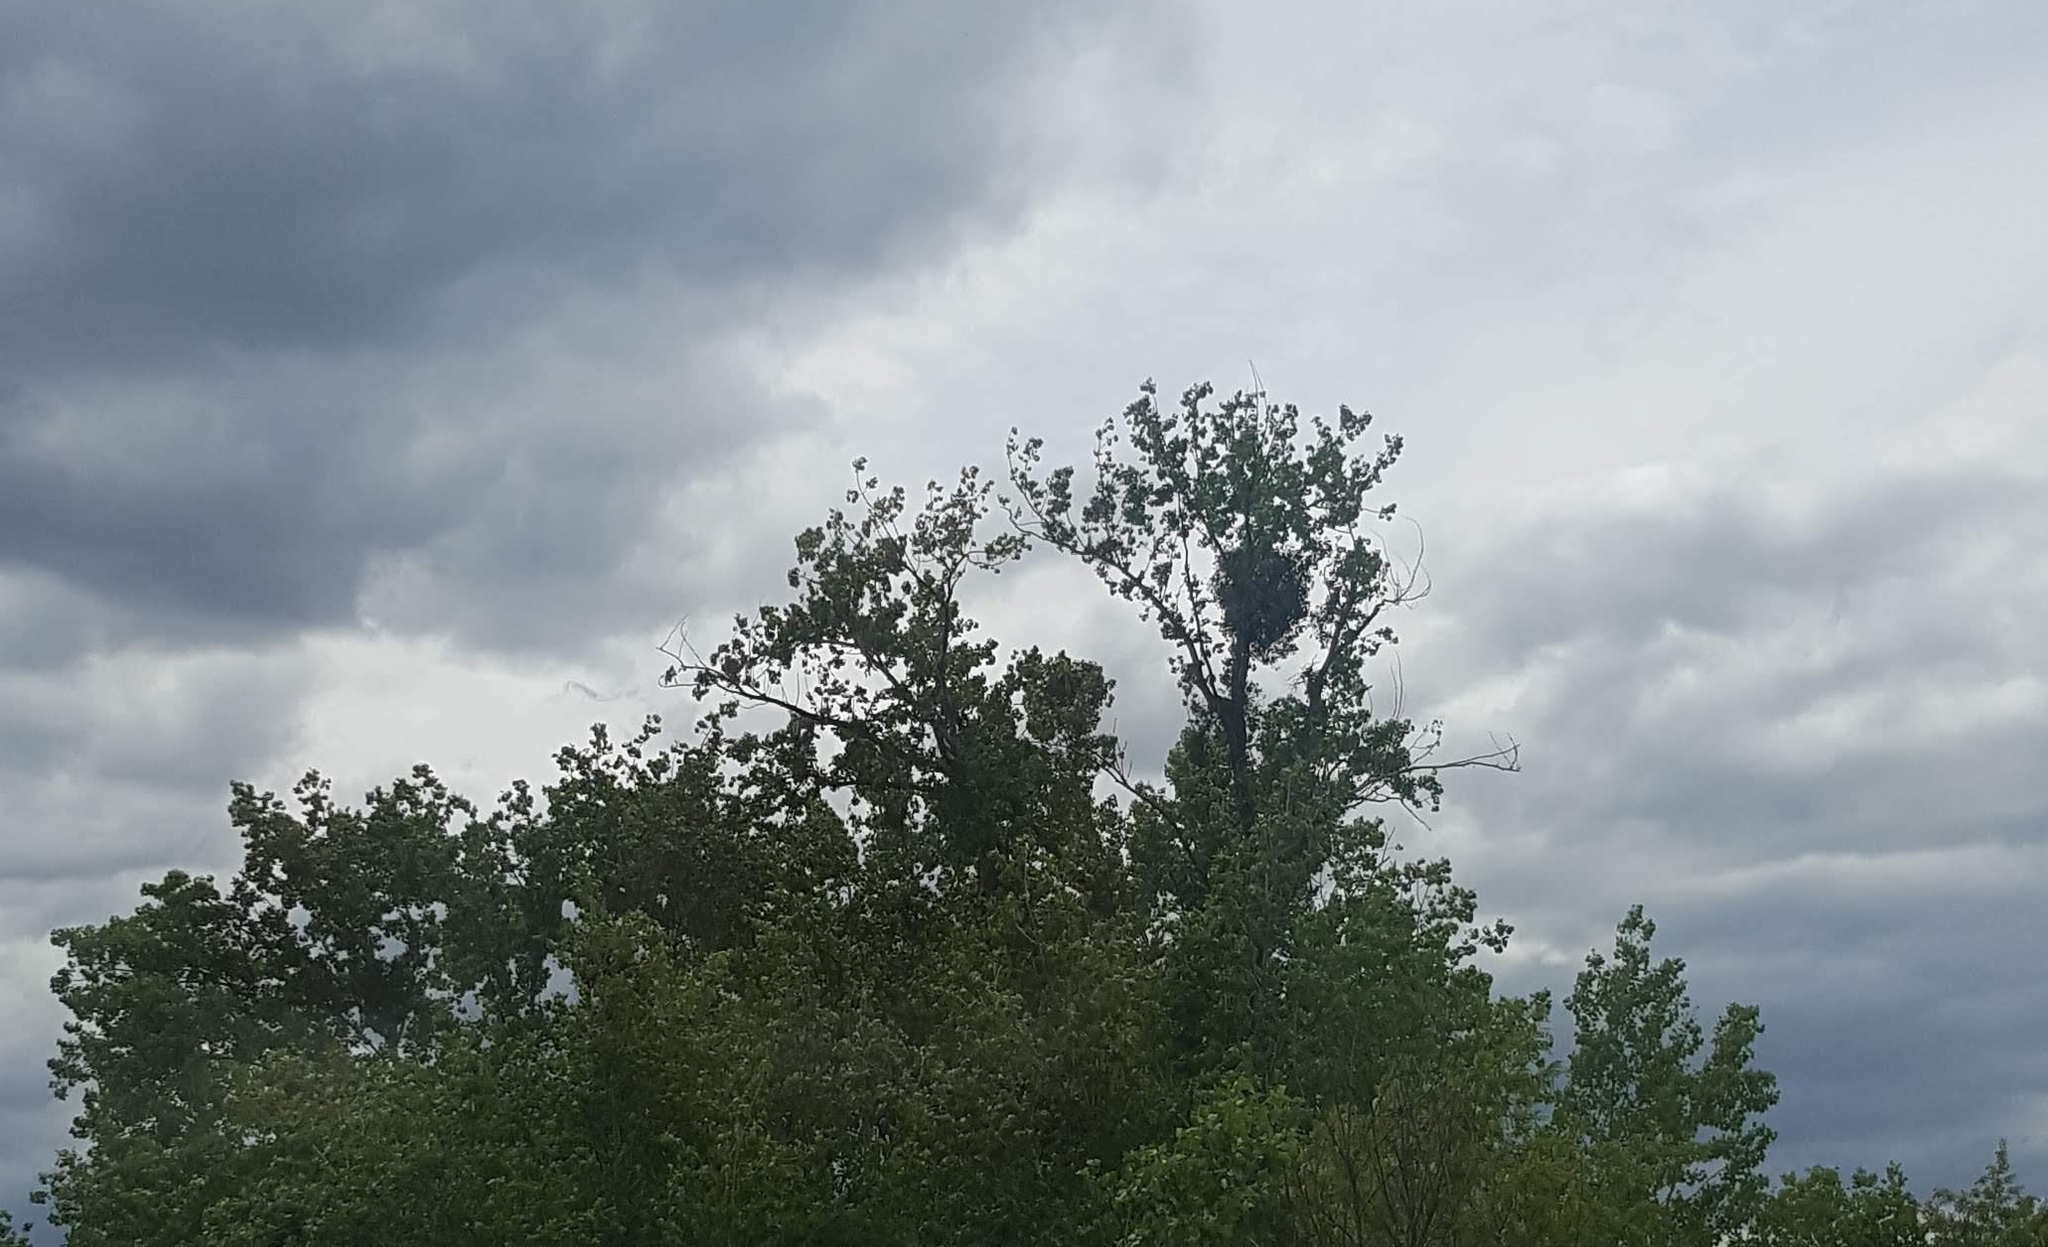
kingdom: Plantae
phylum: Tracheophyta
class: Magnoliopsida
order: Santalales
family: Viscaceae
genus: Viscum
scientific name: Viscum album
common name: Mistletoe
